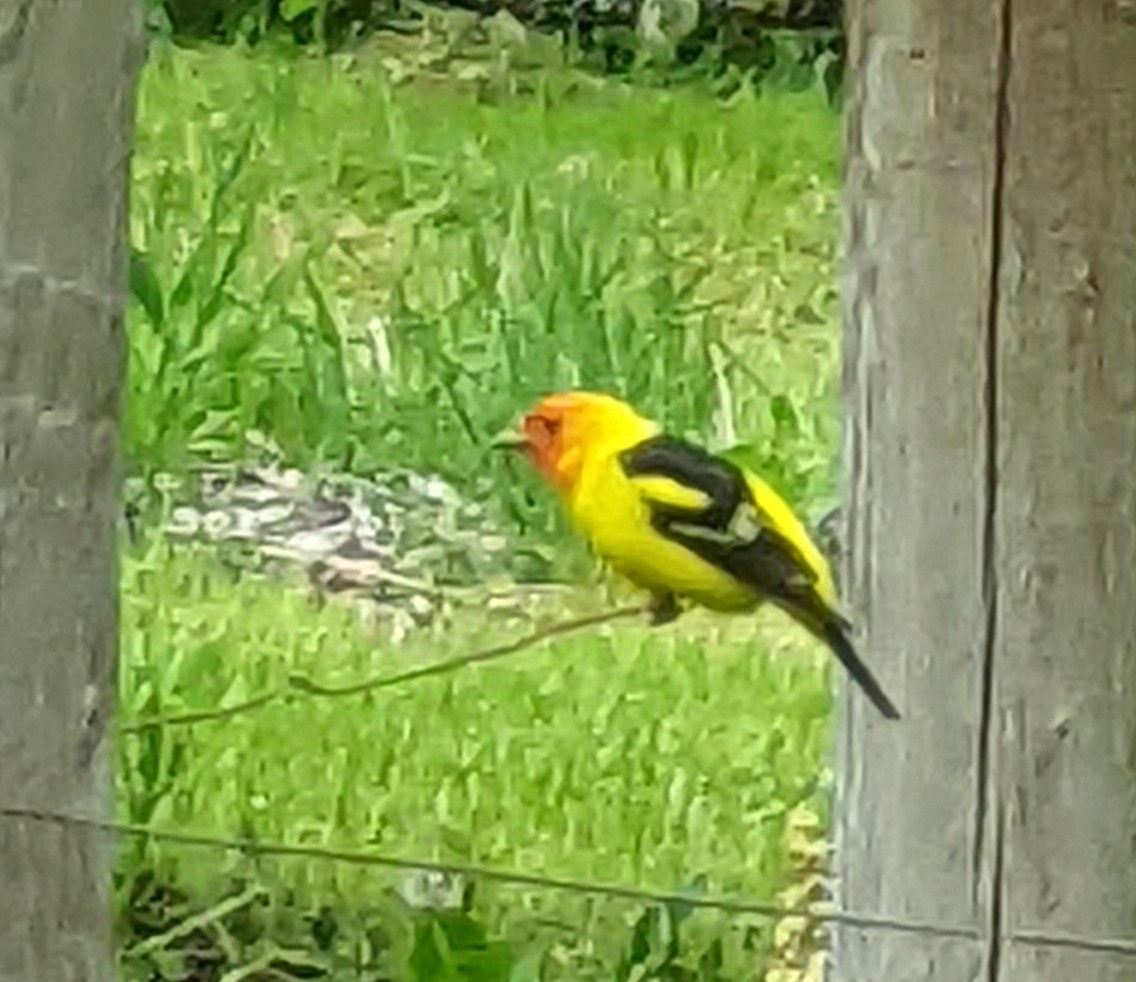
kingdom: Animalia
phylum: Chordata
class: Aves
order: Passeriformes
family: Cardinalidae
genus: Piranga
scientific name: Piranga ludoviciana
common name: Western tanager
